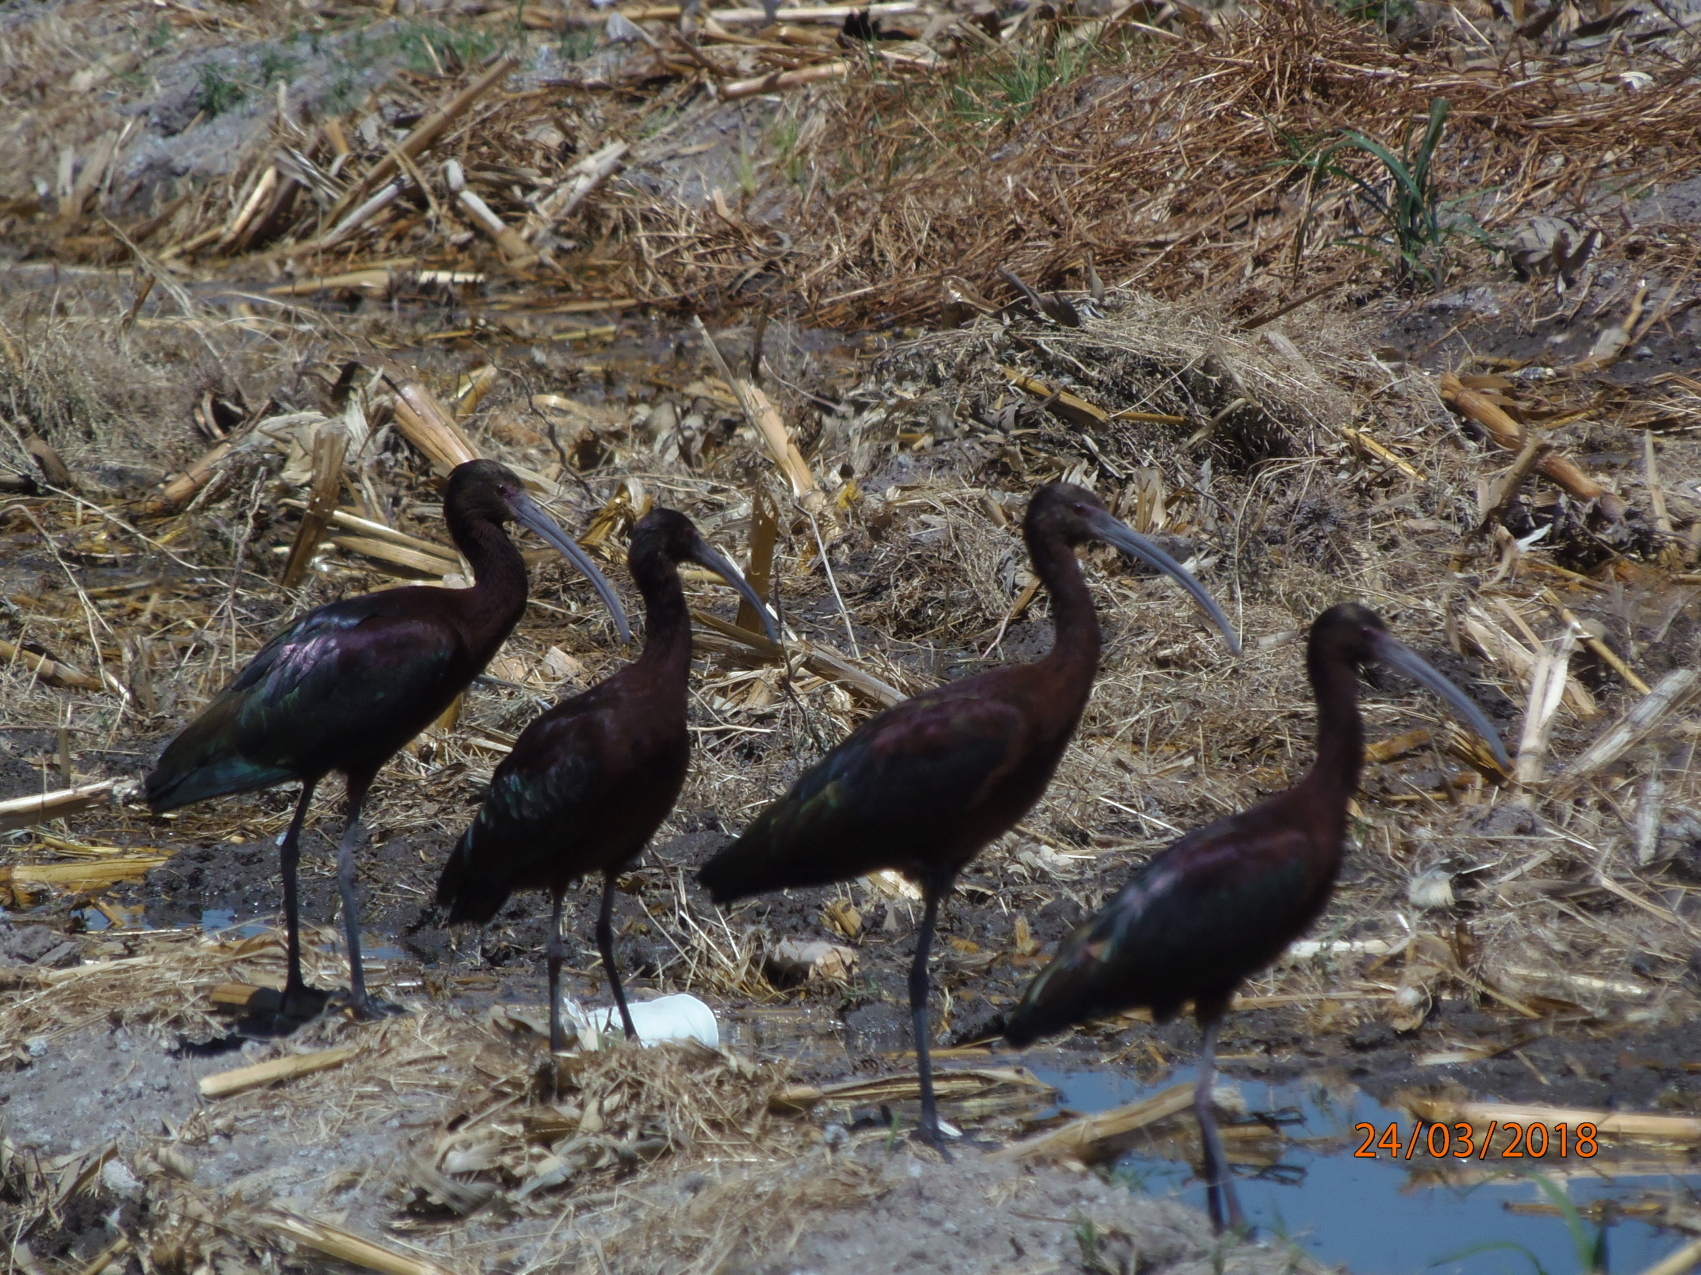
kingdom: Animalia
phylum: Chordata
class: Aves
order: Pelecaniformes
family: Threskiornithidae
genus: Plegadis
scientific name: Plegadis chihi
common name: White-faced ibis
